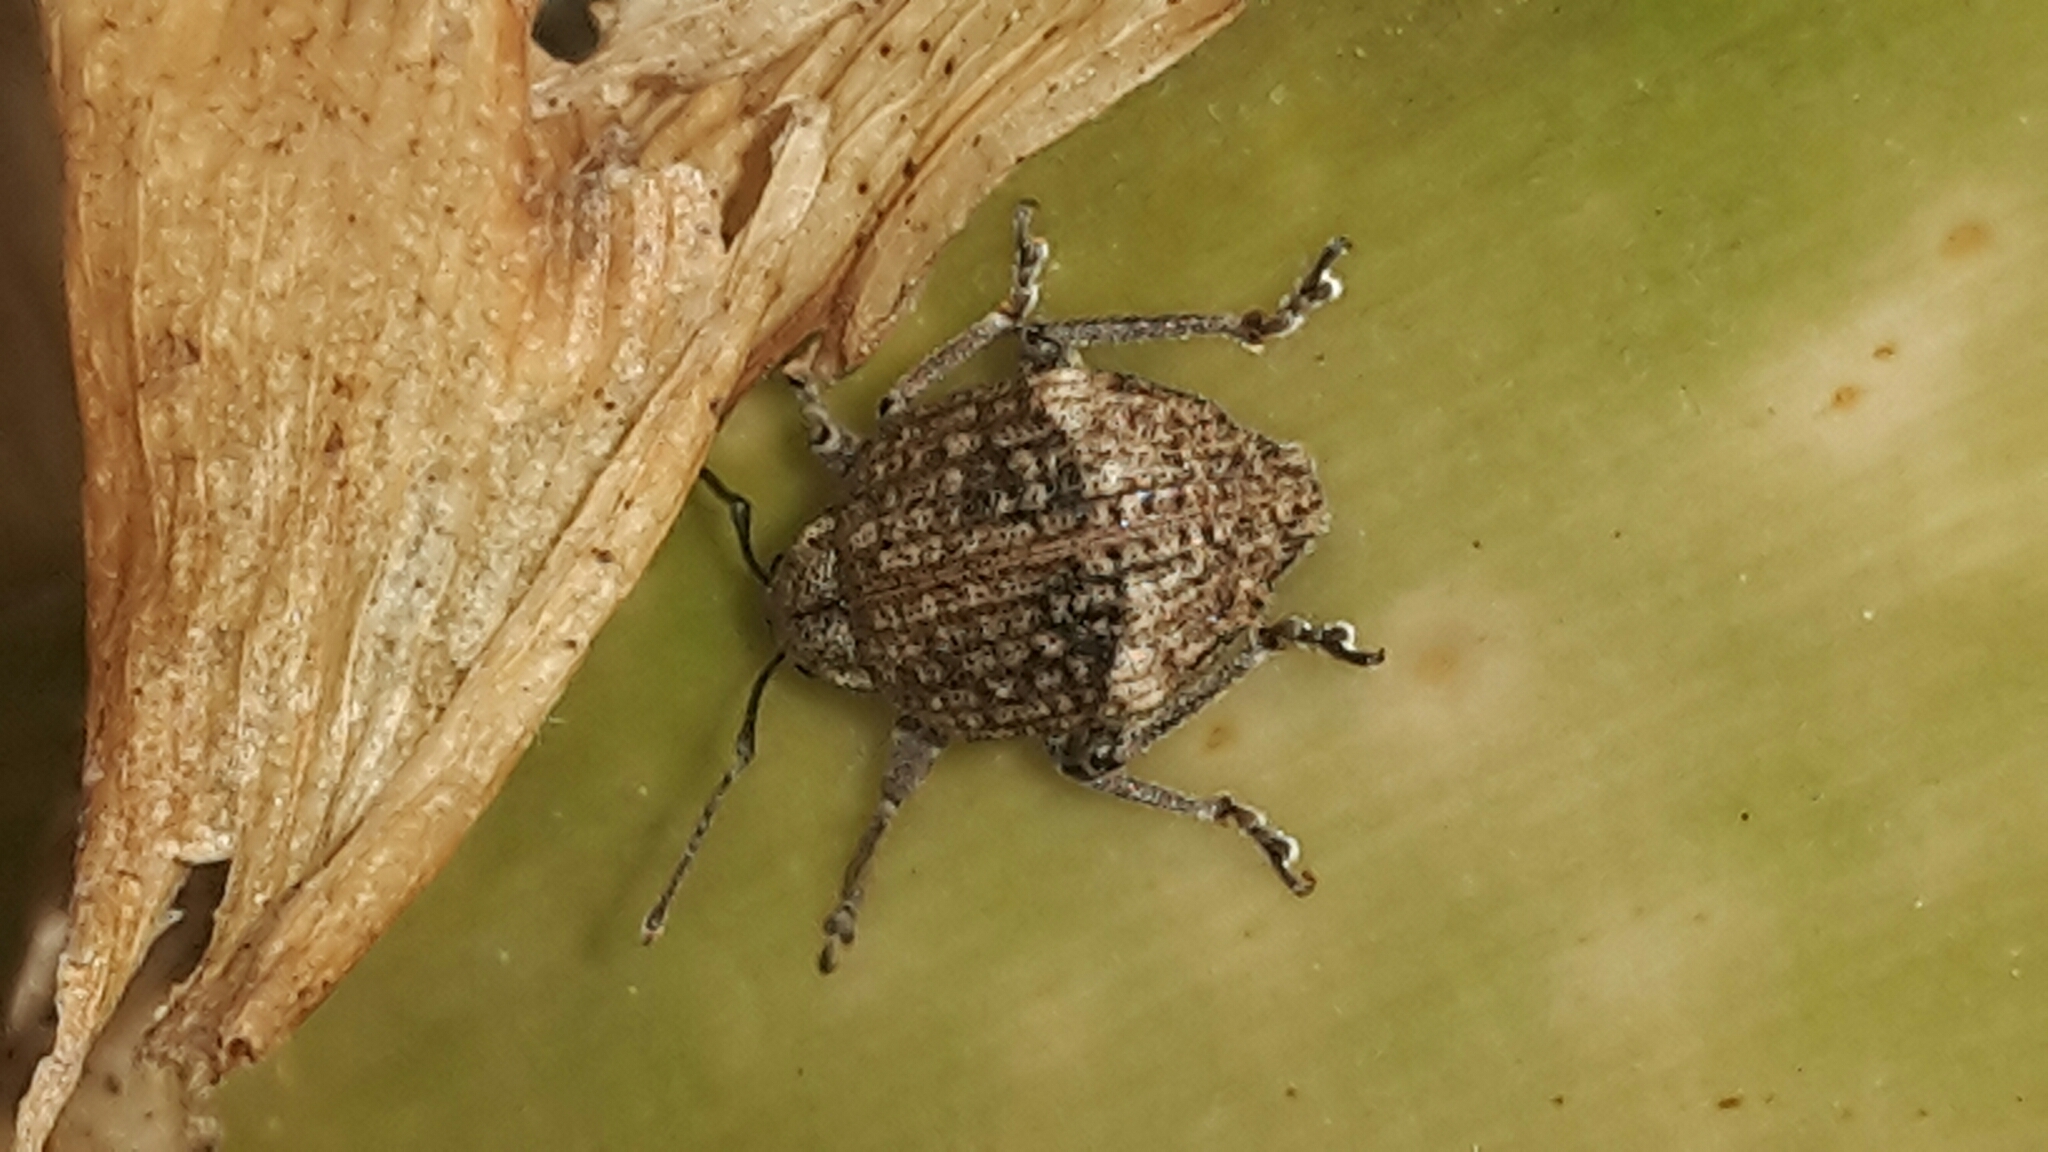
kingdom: Animalia
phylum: Arthropoda
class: Insecta
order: Coleoptera
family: Curculionidae
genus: Phlyctinus
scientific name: Phlyctinus callosus
